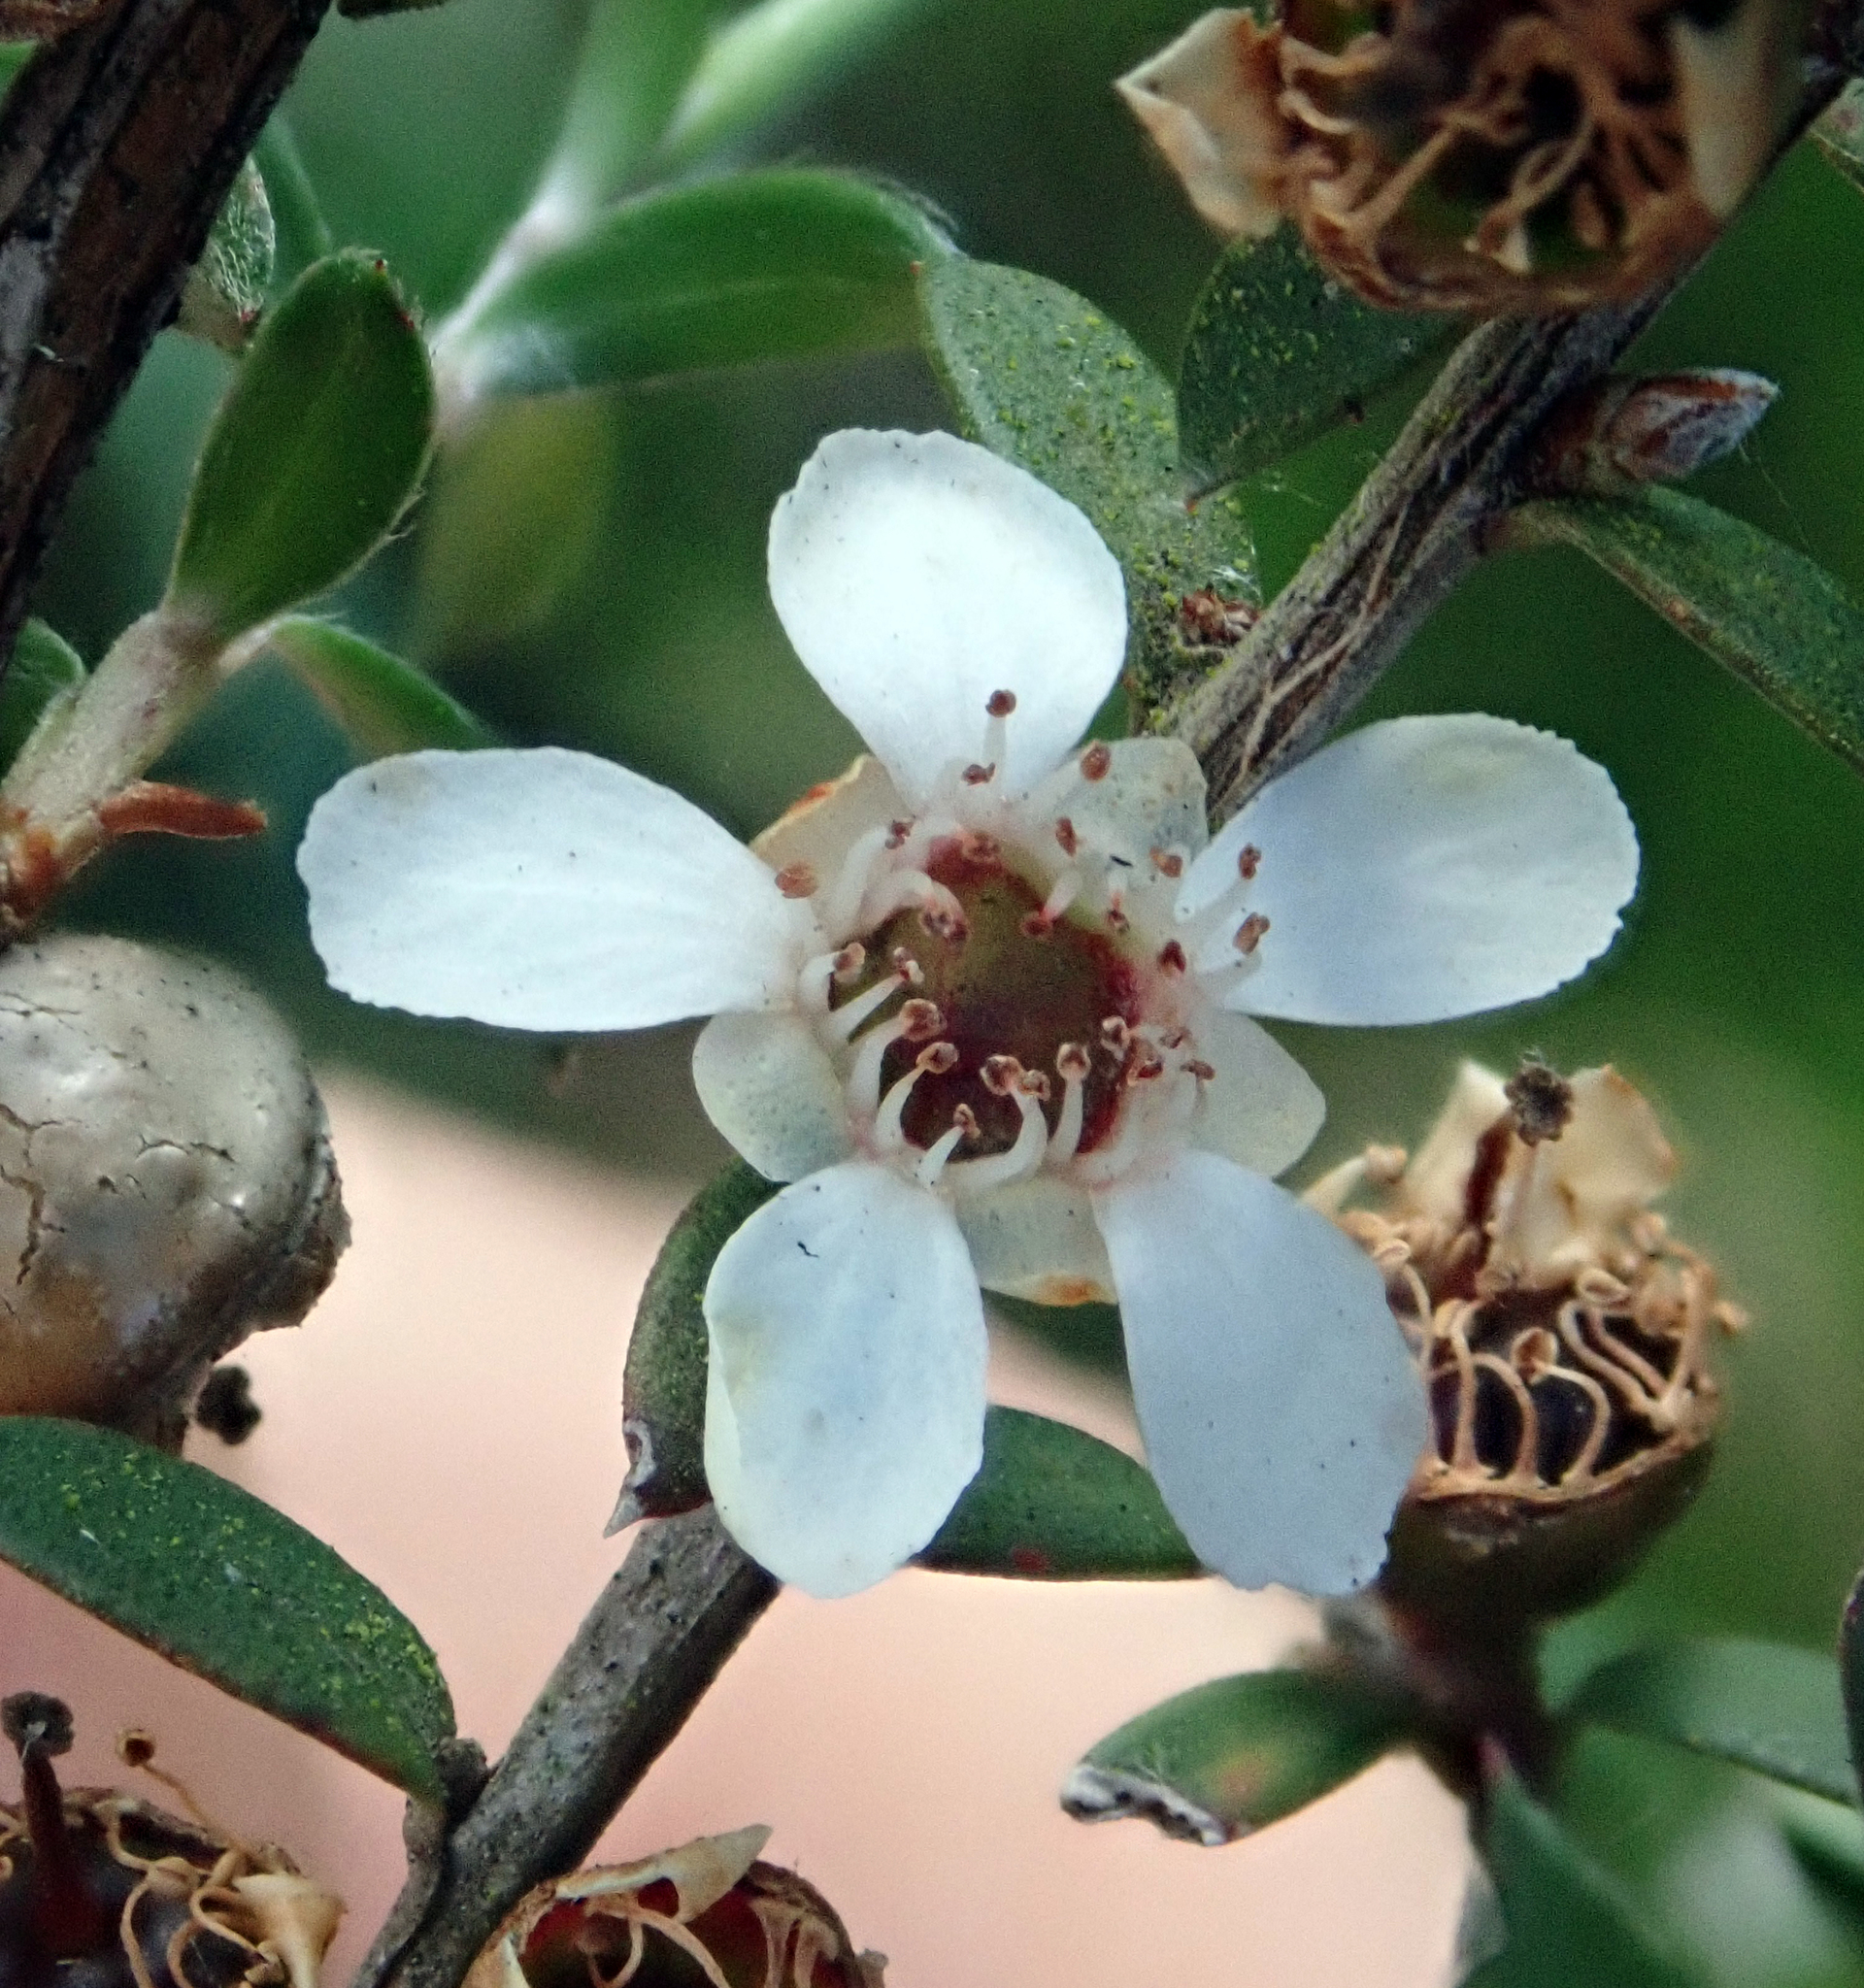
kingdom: Plantae
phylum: Tracheophyta
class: Magnoliopsida
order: Myrtales
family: Myrtaceae
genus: Leptospermum
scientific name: Leptospermum scoparium
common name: Broom tea-tree
